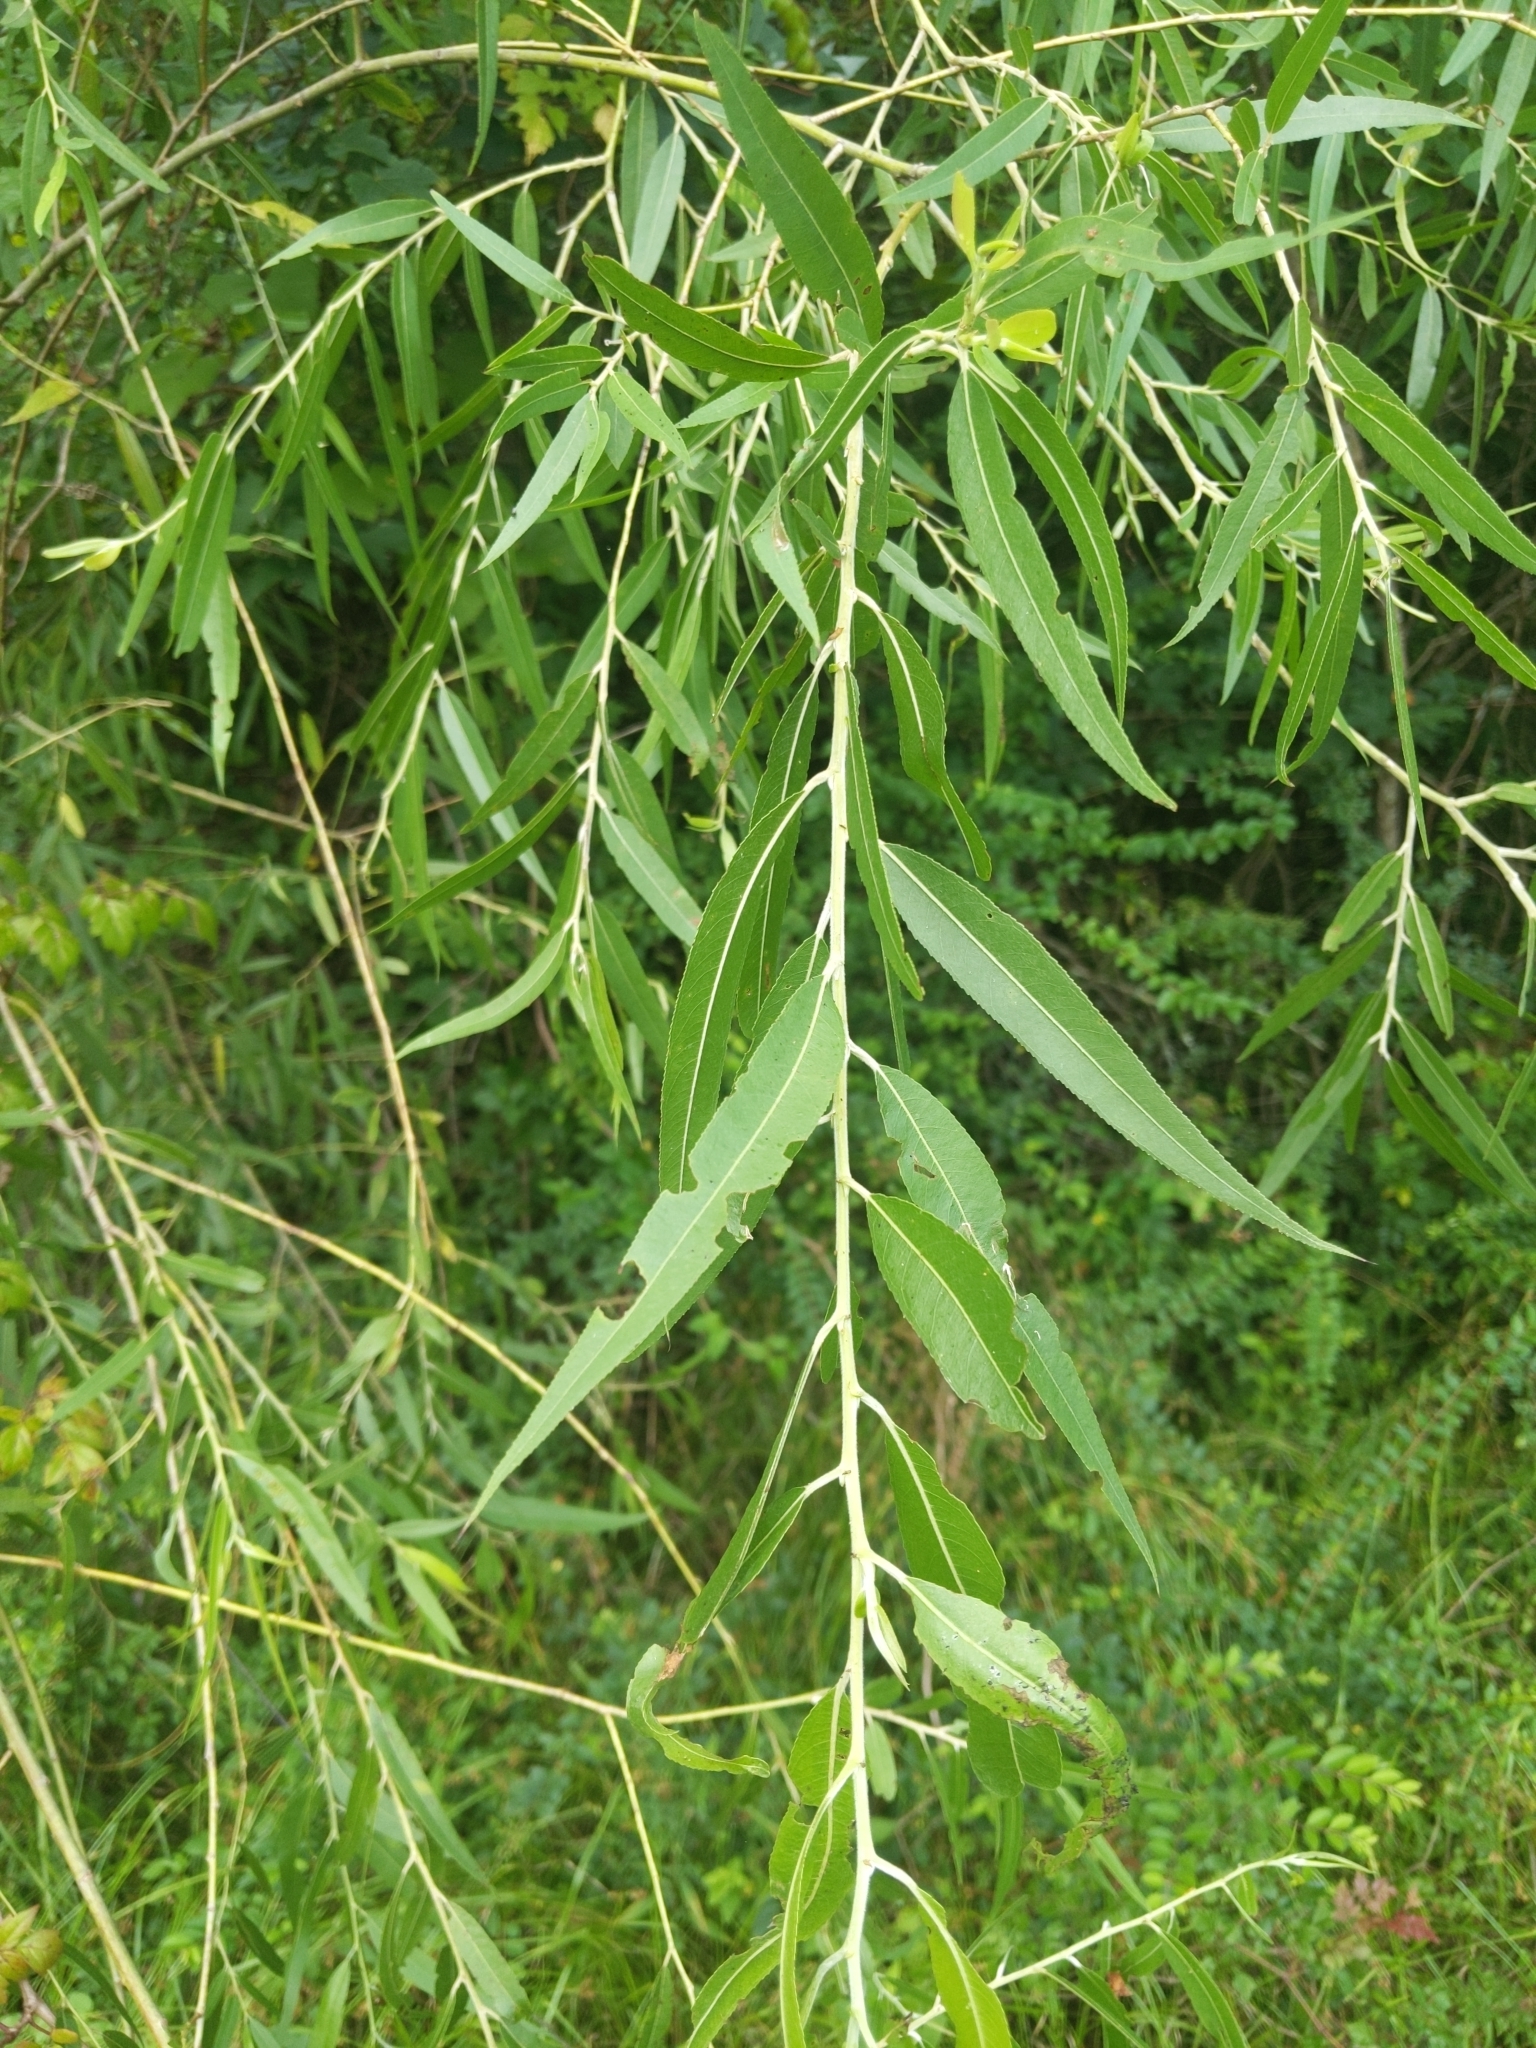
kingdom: Plantae
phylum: Tracheophyta
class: Magnoliopsida
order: Malpighiales
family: Salicaceae
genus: Salix
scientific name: Salix nigra
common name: Black willow
